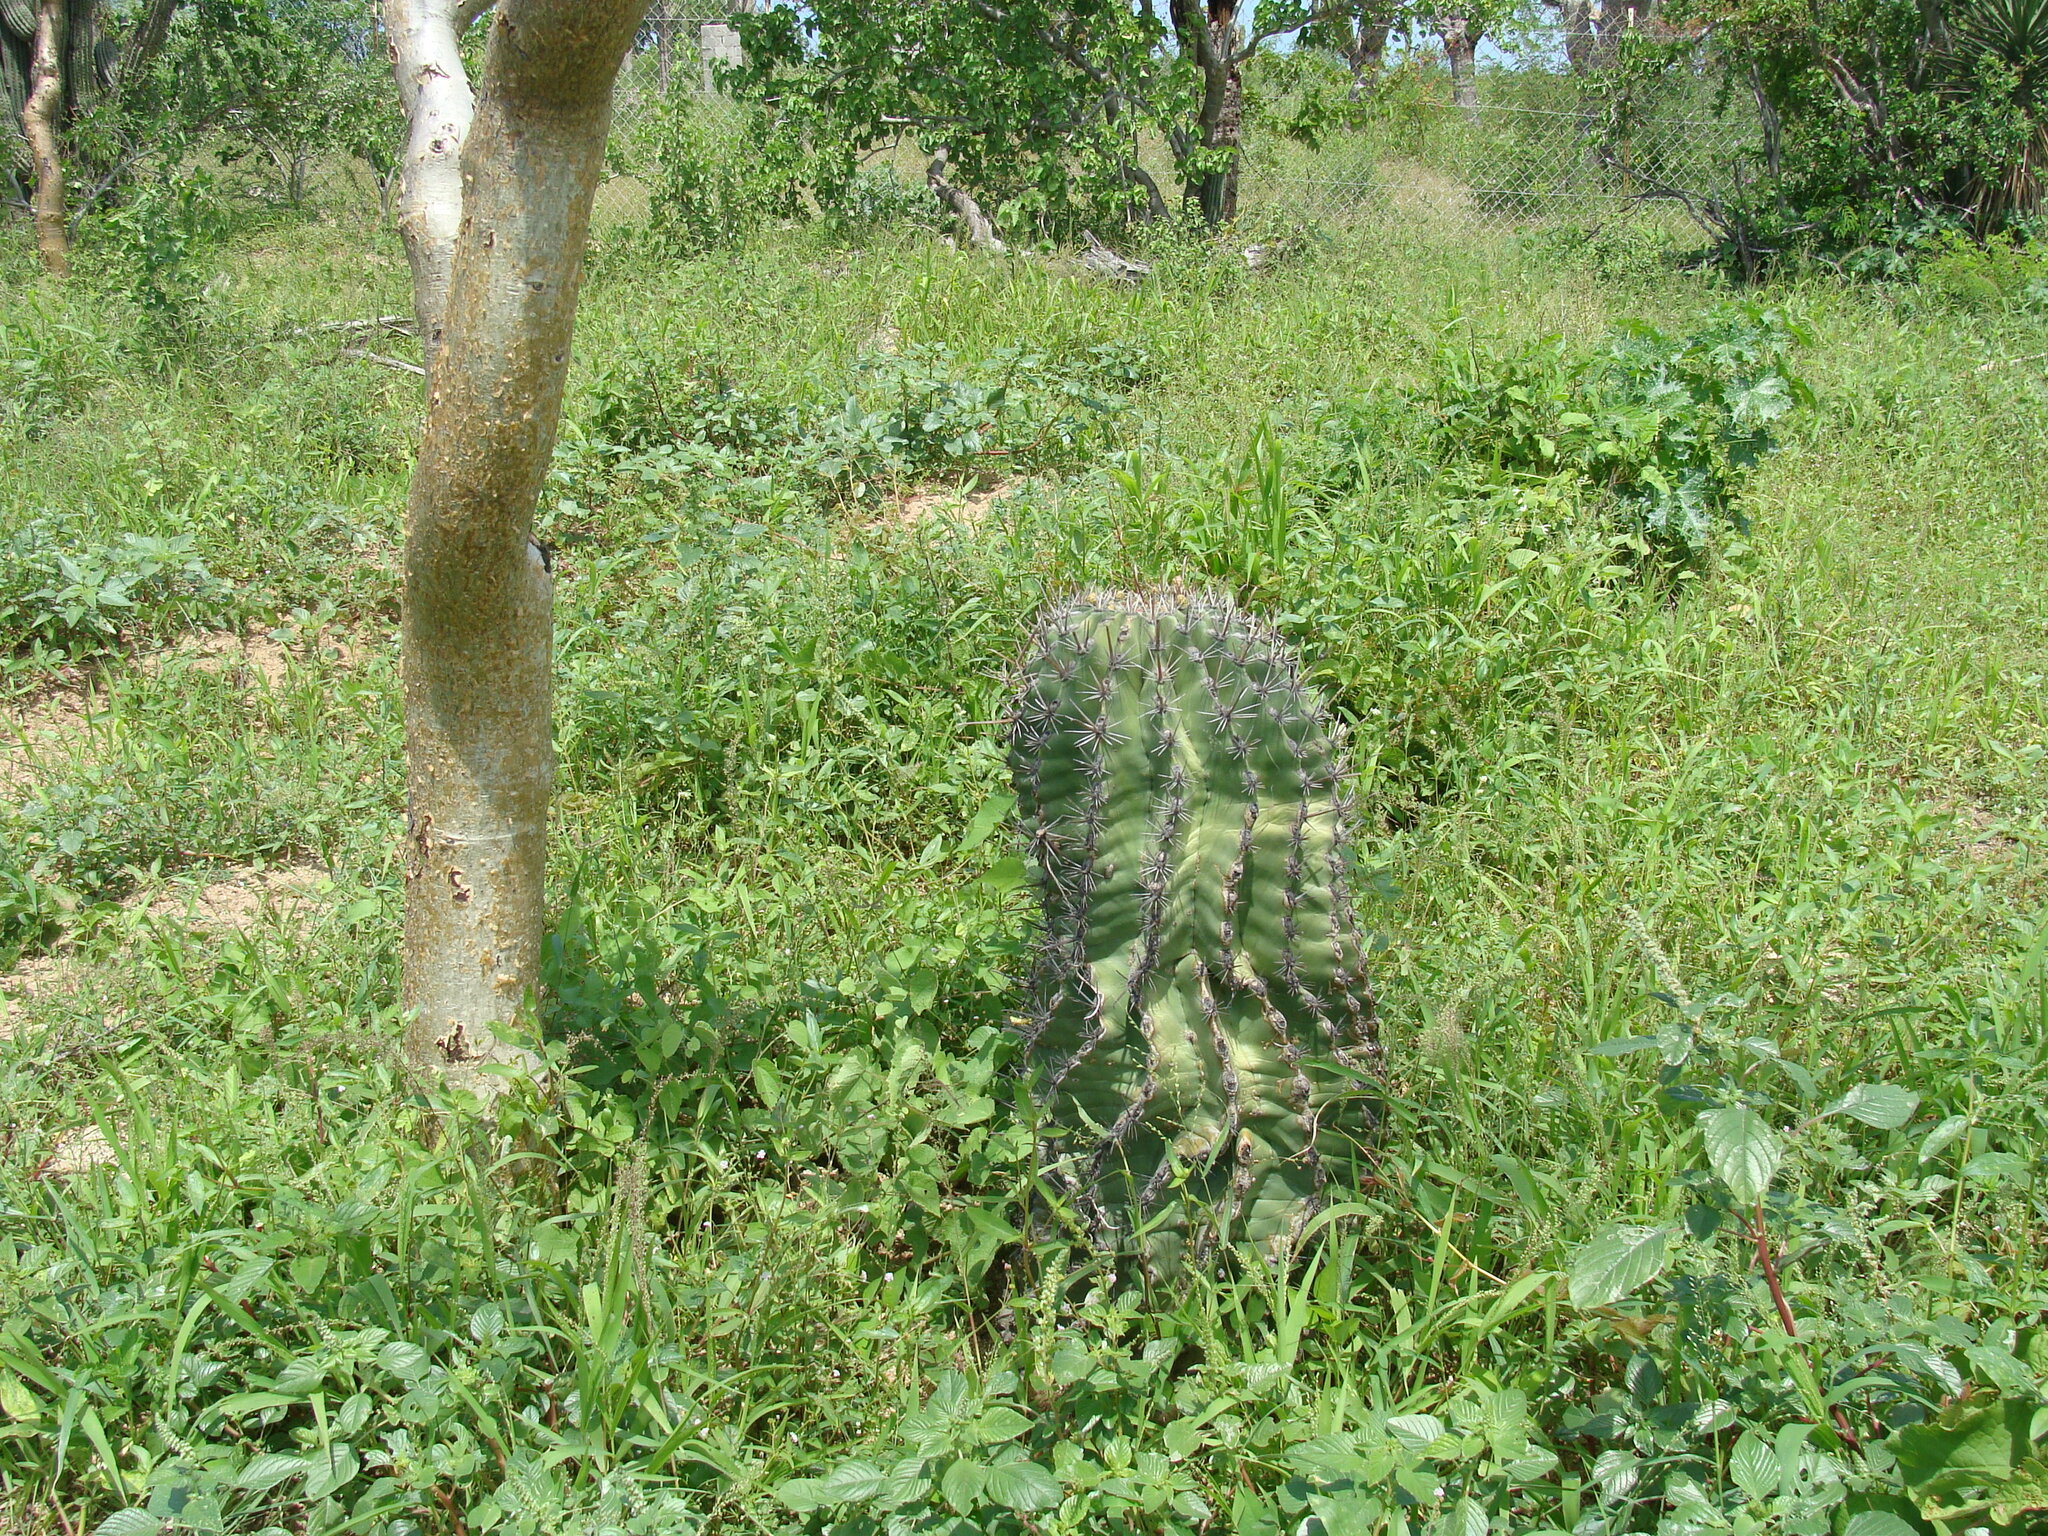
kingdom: Plantae
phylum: Tracheophyta
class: Magnoliopsida
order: Caryophyllales
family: Cactaceae
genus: Ferocactus
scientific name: Ferocactus townsendianus
